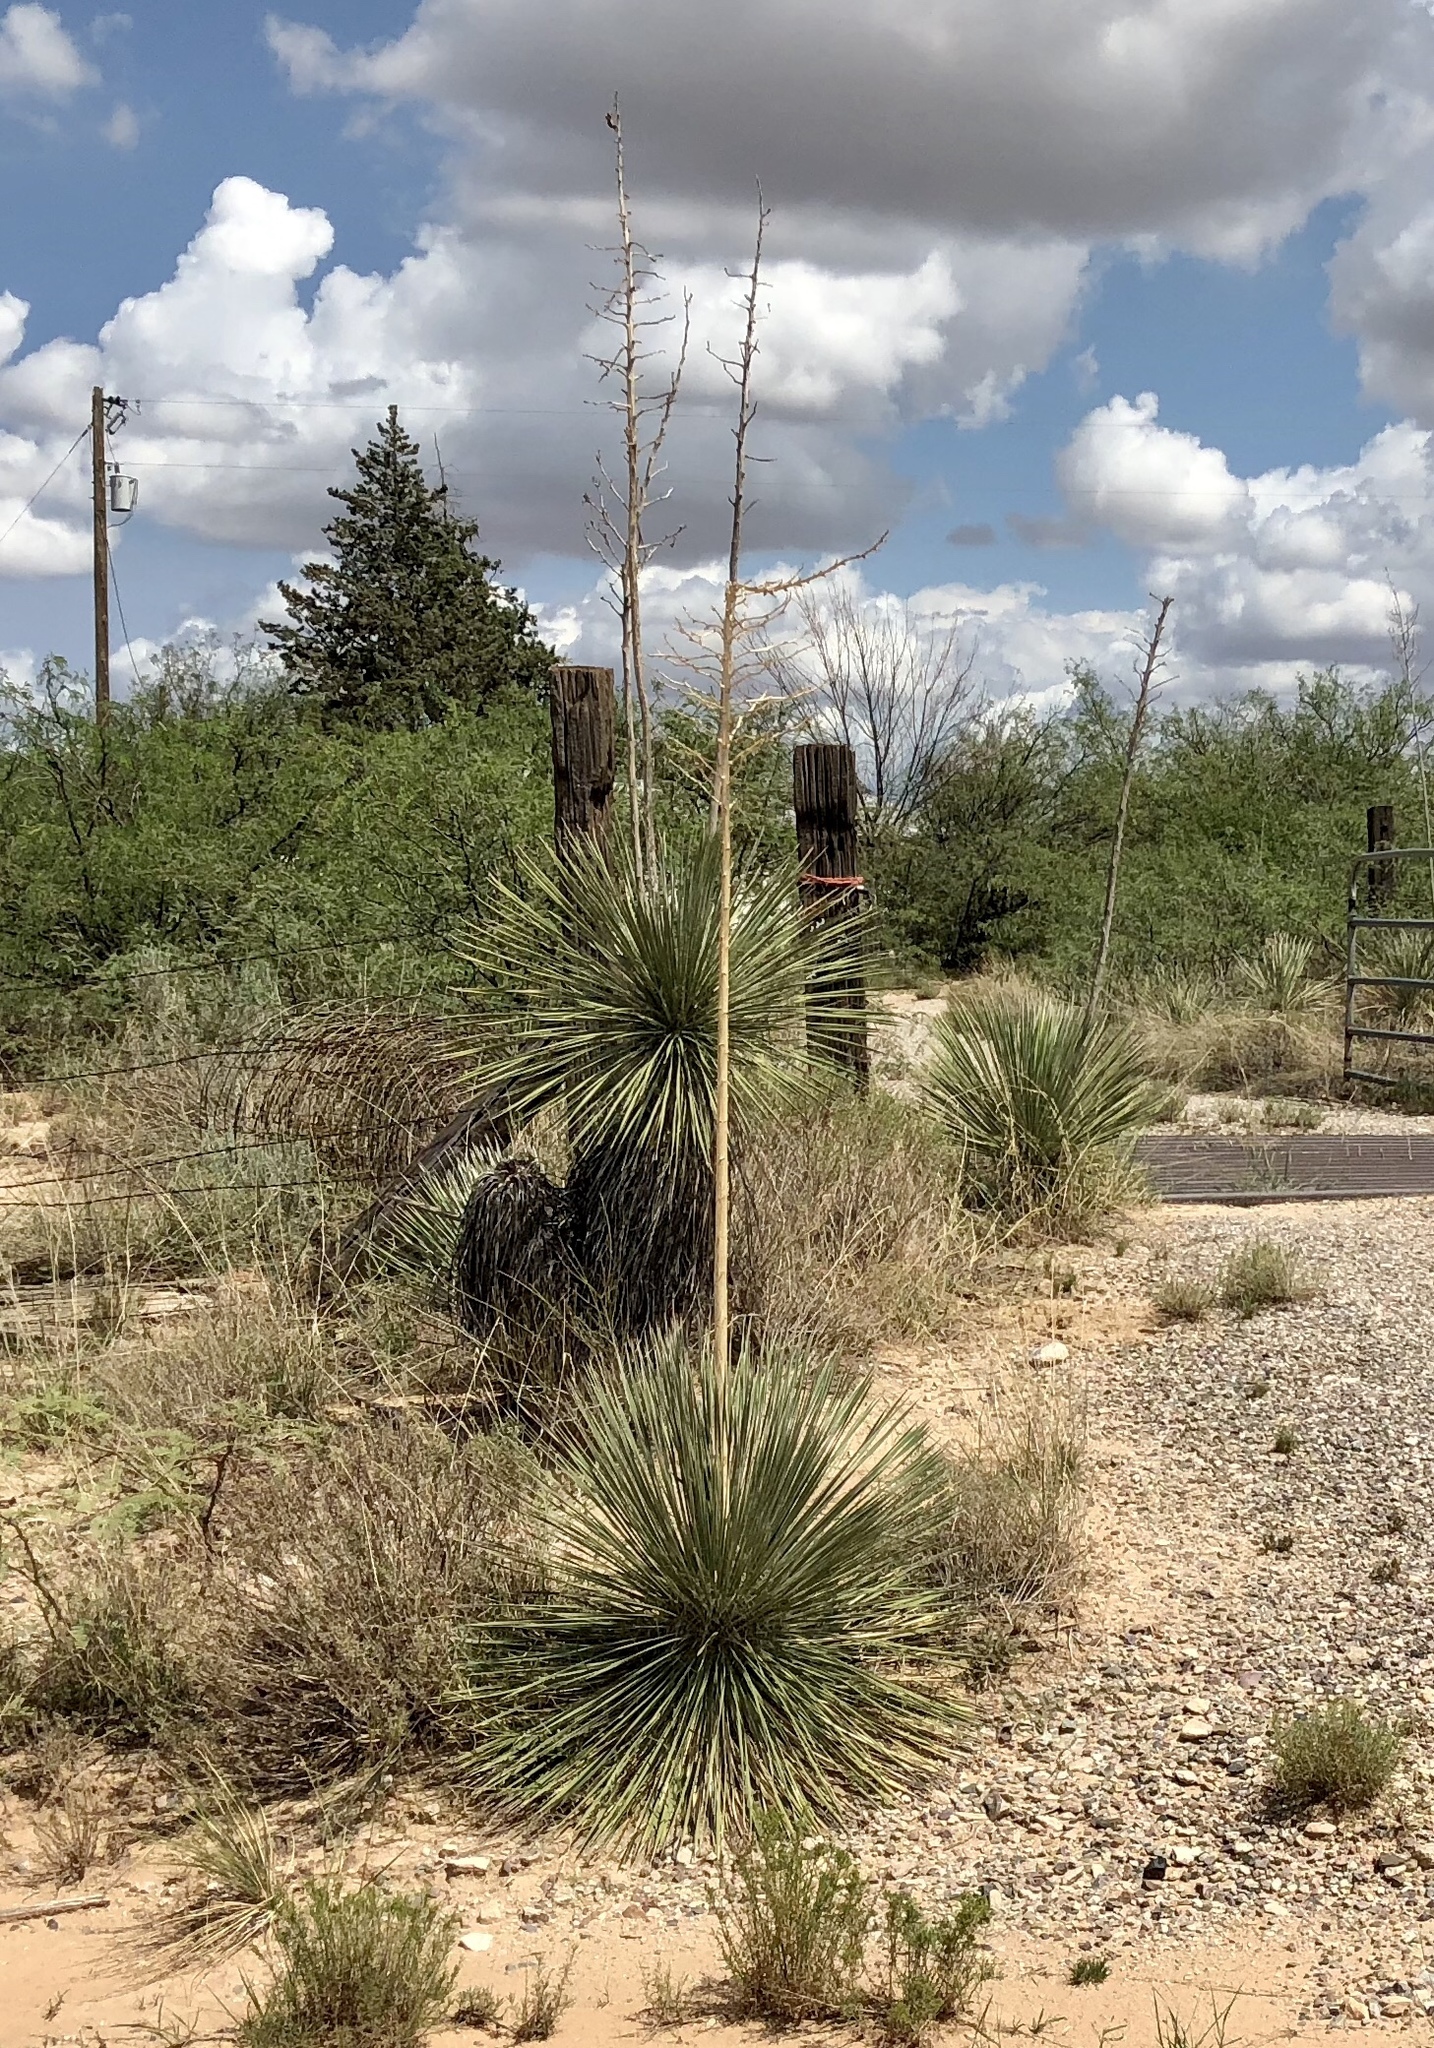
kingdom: Plantae
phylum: Tracheophyta
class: Liliopsida
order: Asparagales
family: Asparagaceae
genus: Yucca
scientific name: Yucca elata
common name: Palmella
